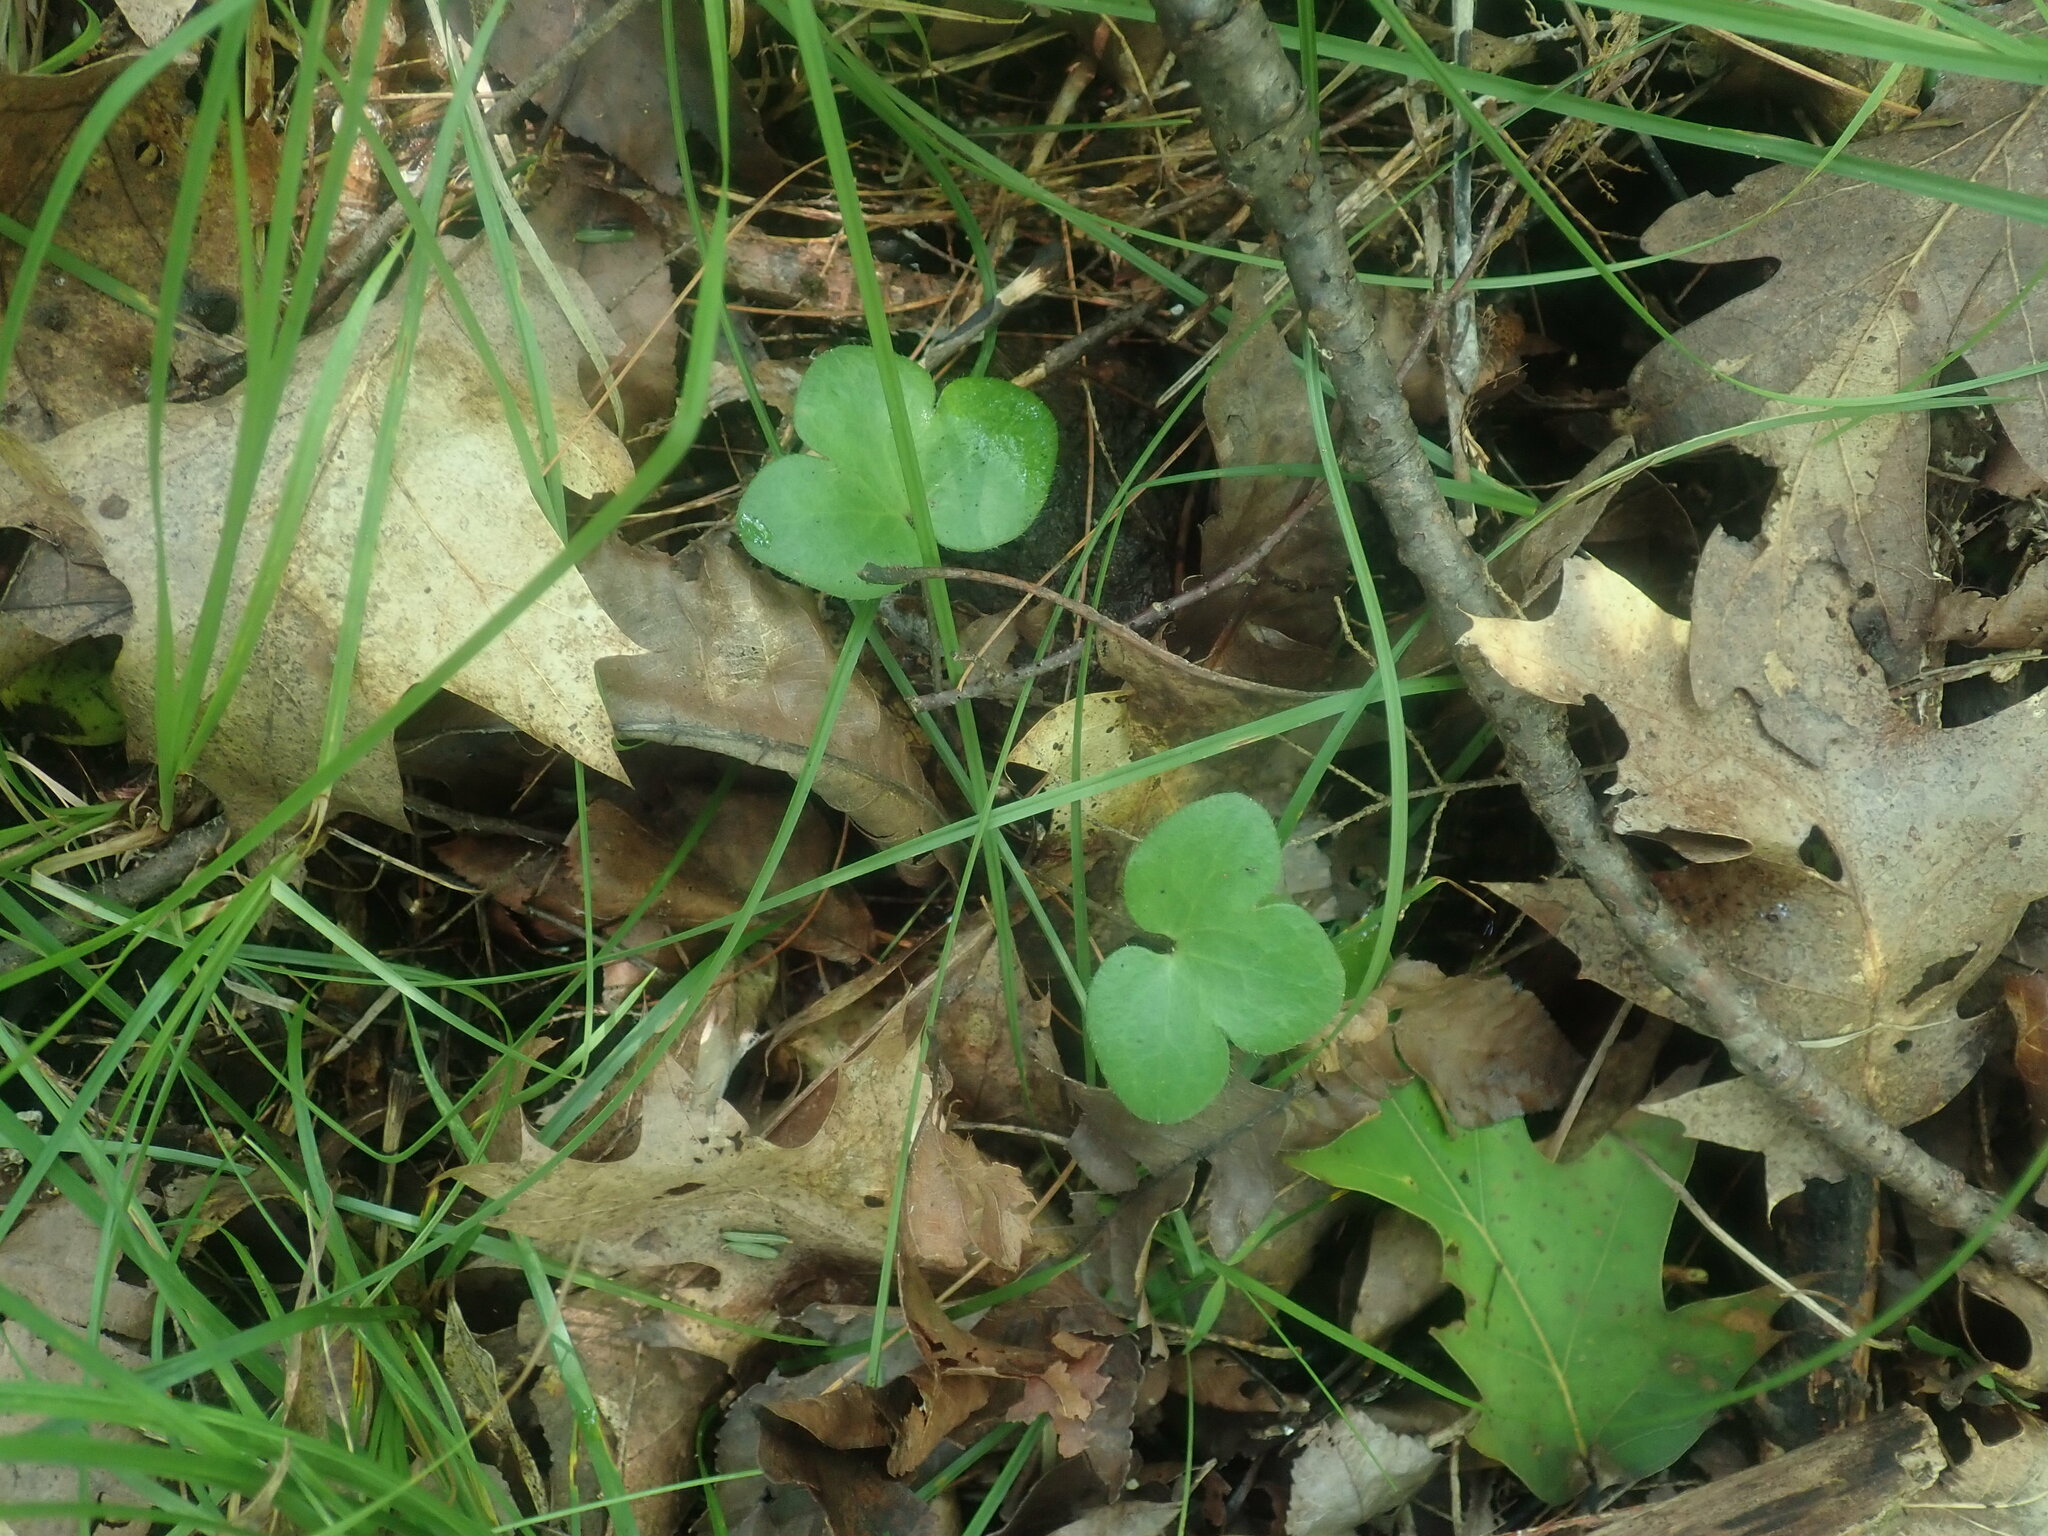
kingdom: Plantae
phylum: Tracheophyta
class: Magnoliopsida
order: Ranunculales
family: Ranunculaceae
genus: Hepatica
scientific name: Hepatica americana
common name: American hepatica
